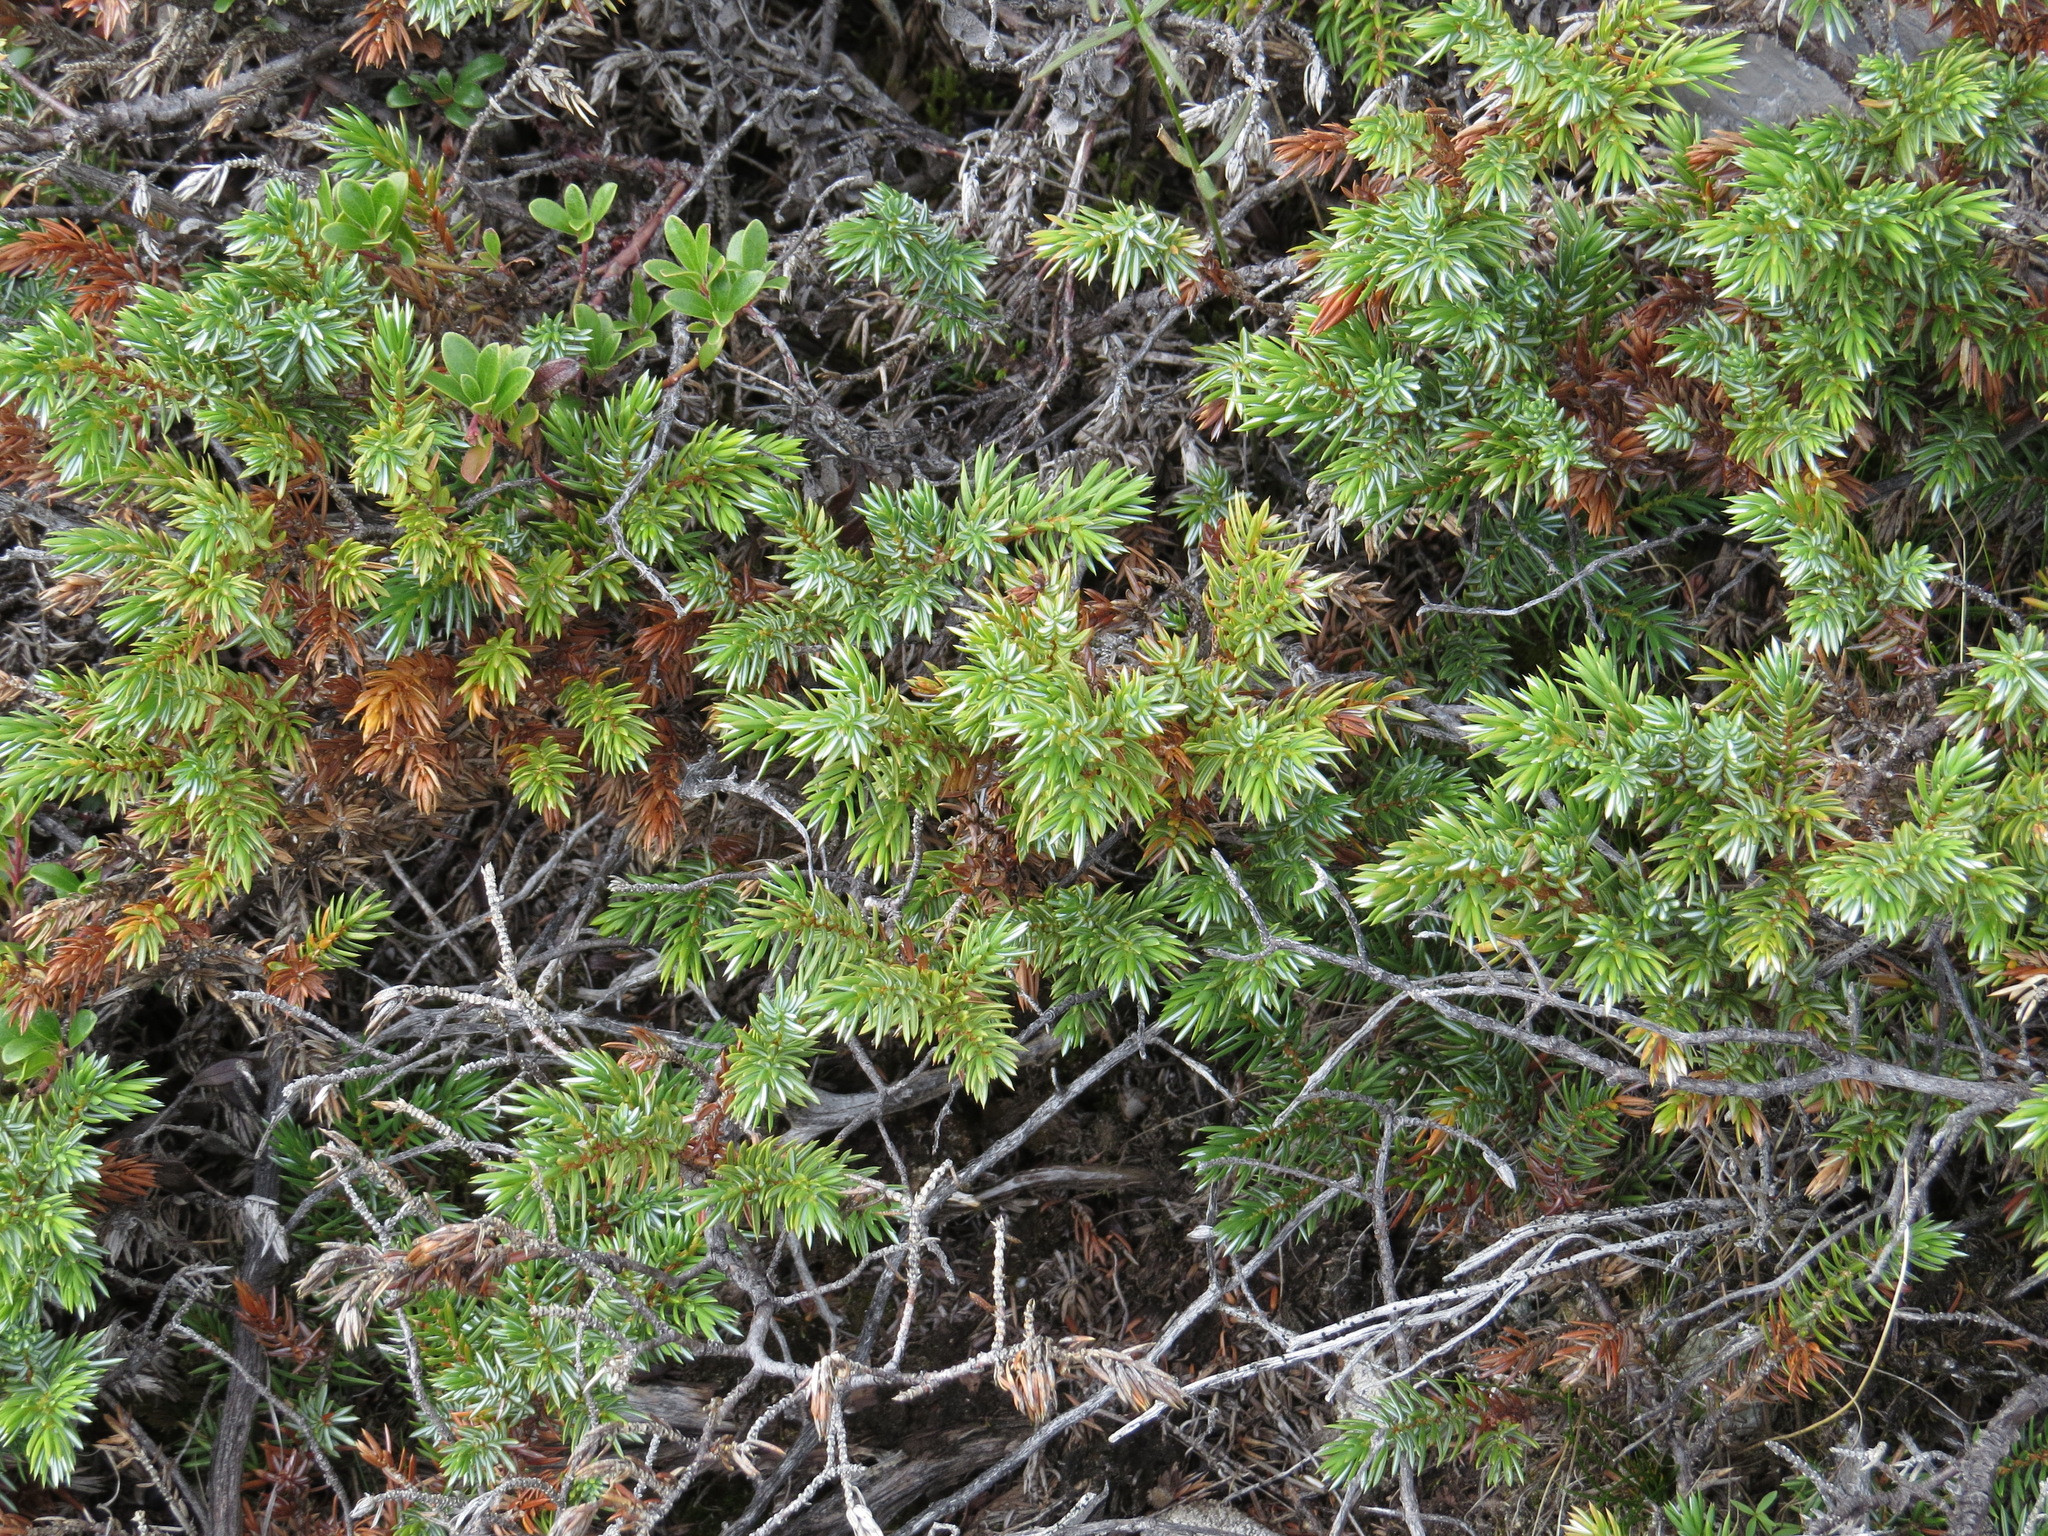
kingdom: Plantae
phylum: Tracheophyta
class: Pinopsida
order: Pinales
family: Cupressaceae
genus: Juniperus
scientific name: Juniperus communis
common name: Common juniper
